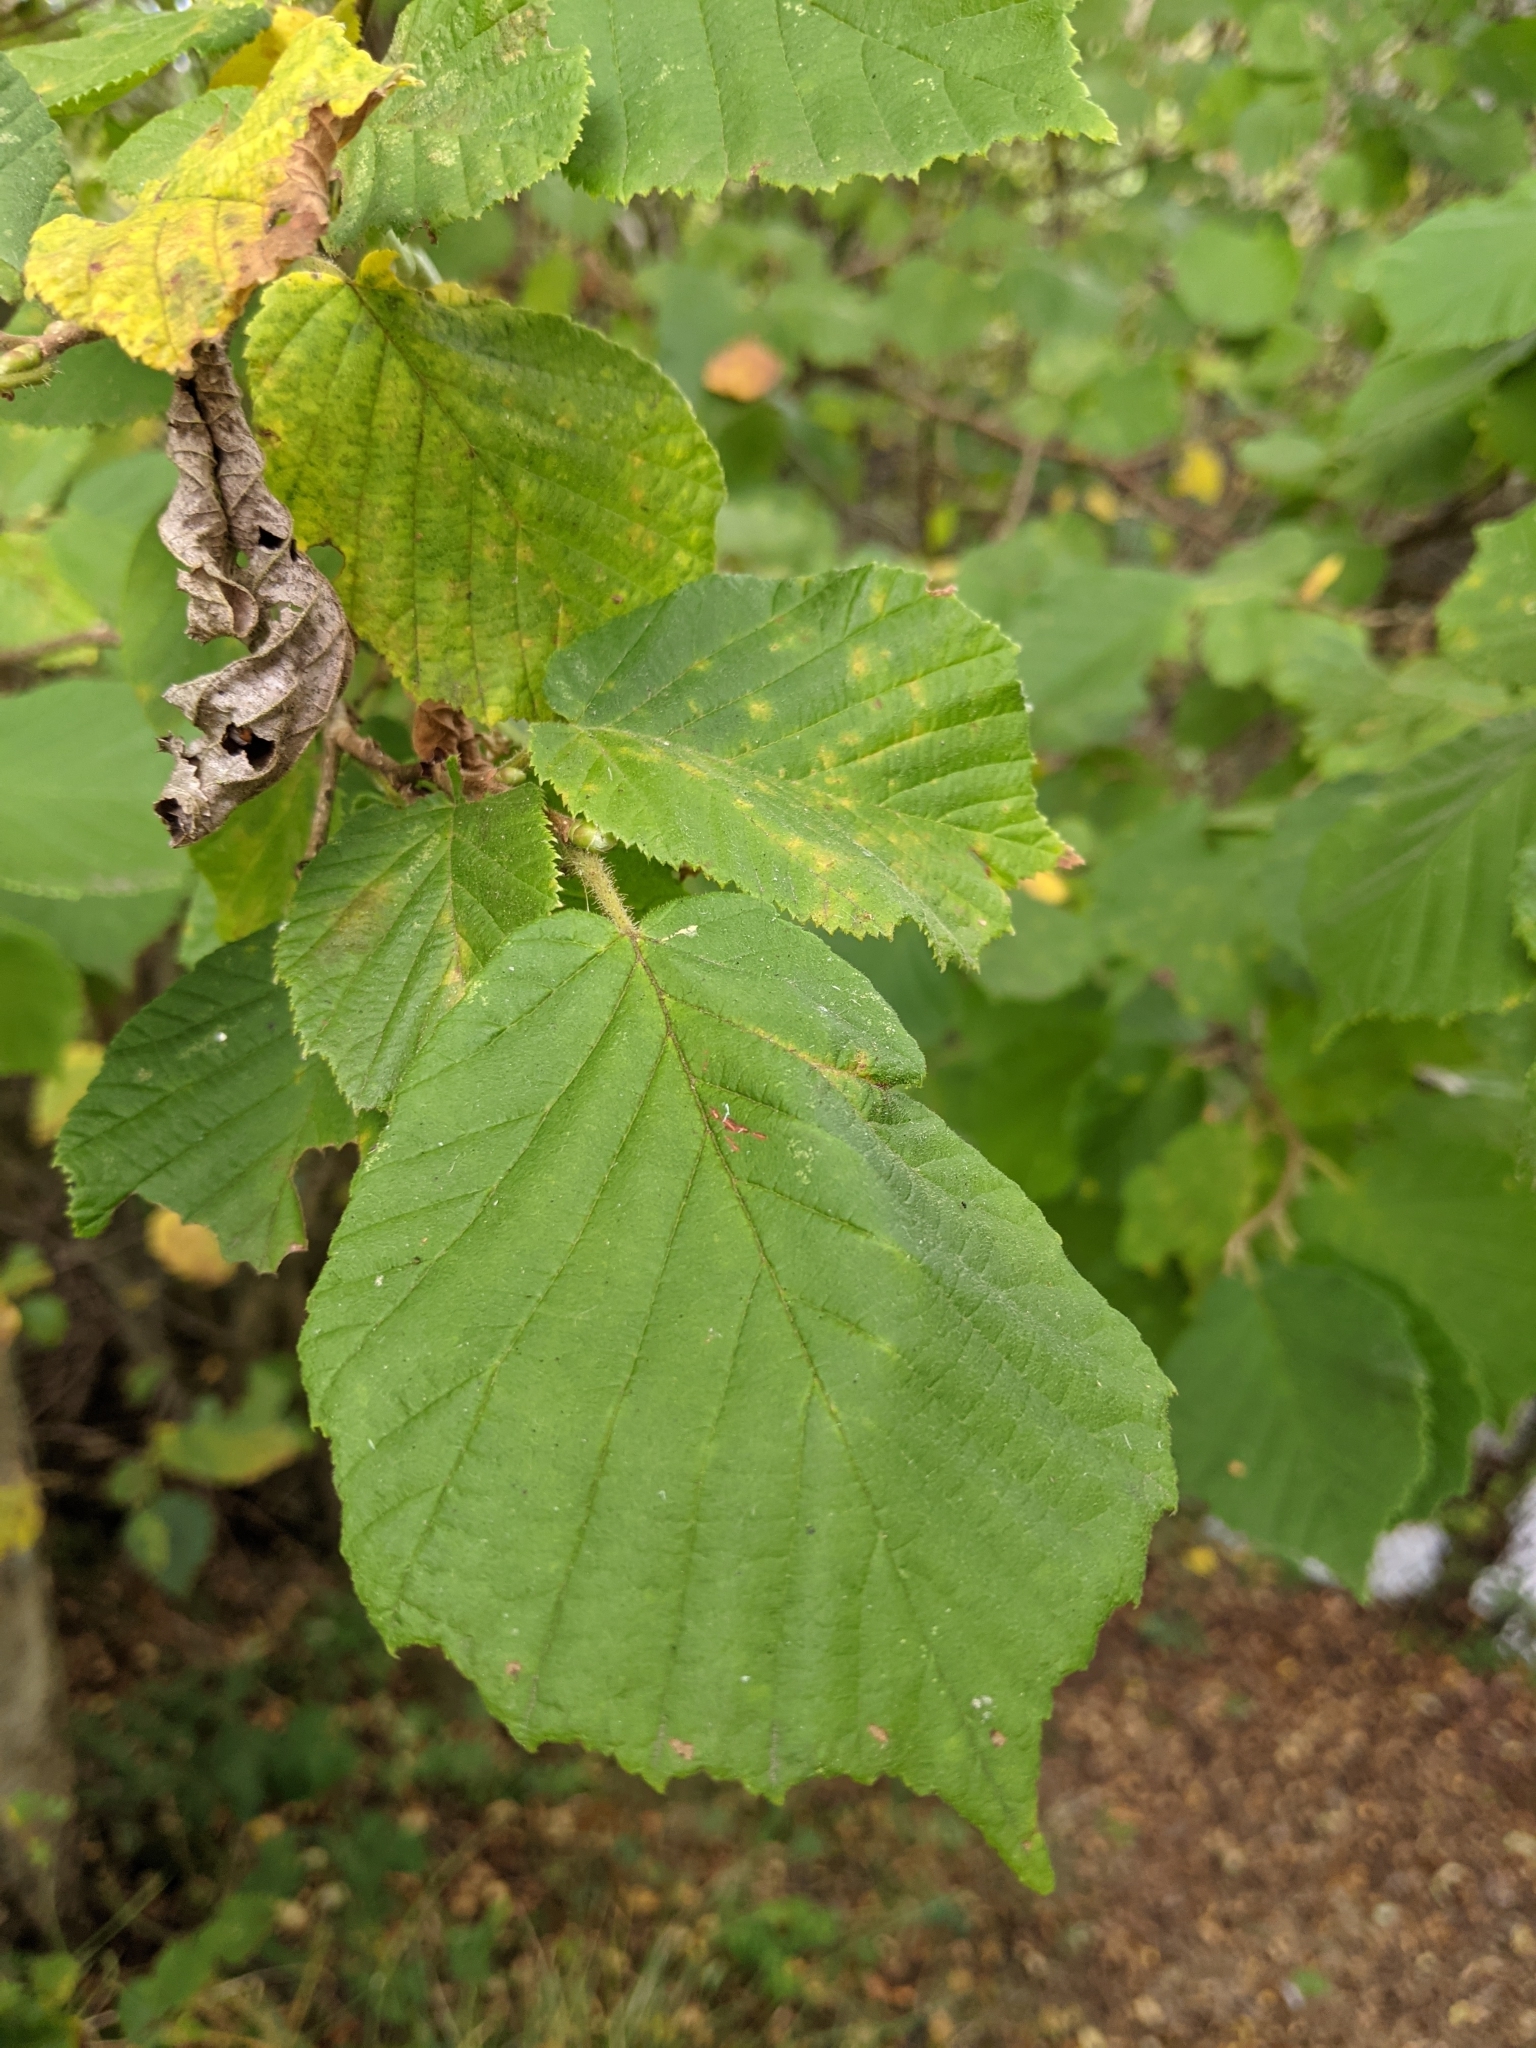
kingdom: Plantae
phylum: Tracheophyta
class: Magnoliopsida
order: Fagales
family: Betulaceae
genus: Corylus
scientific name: Corylus avellana
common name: European hazel
